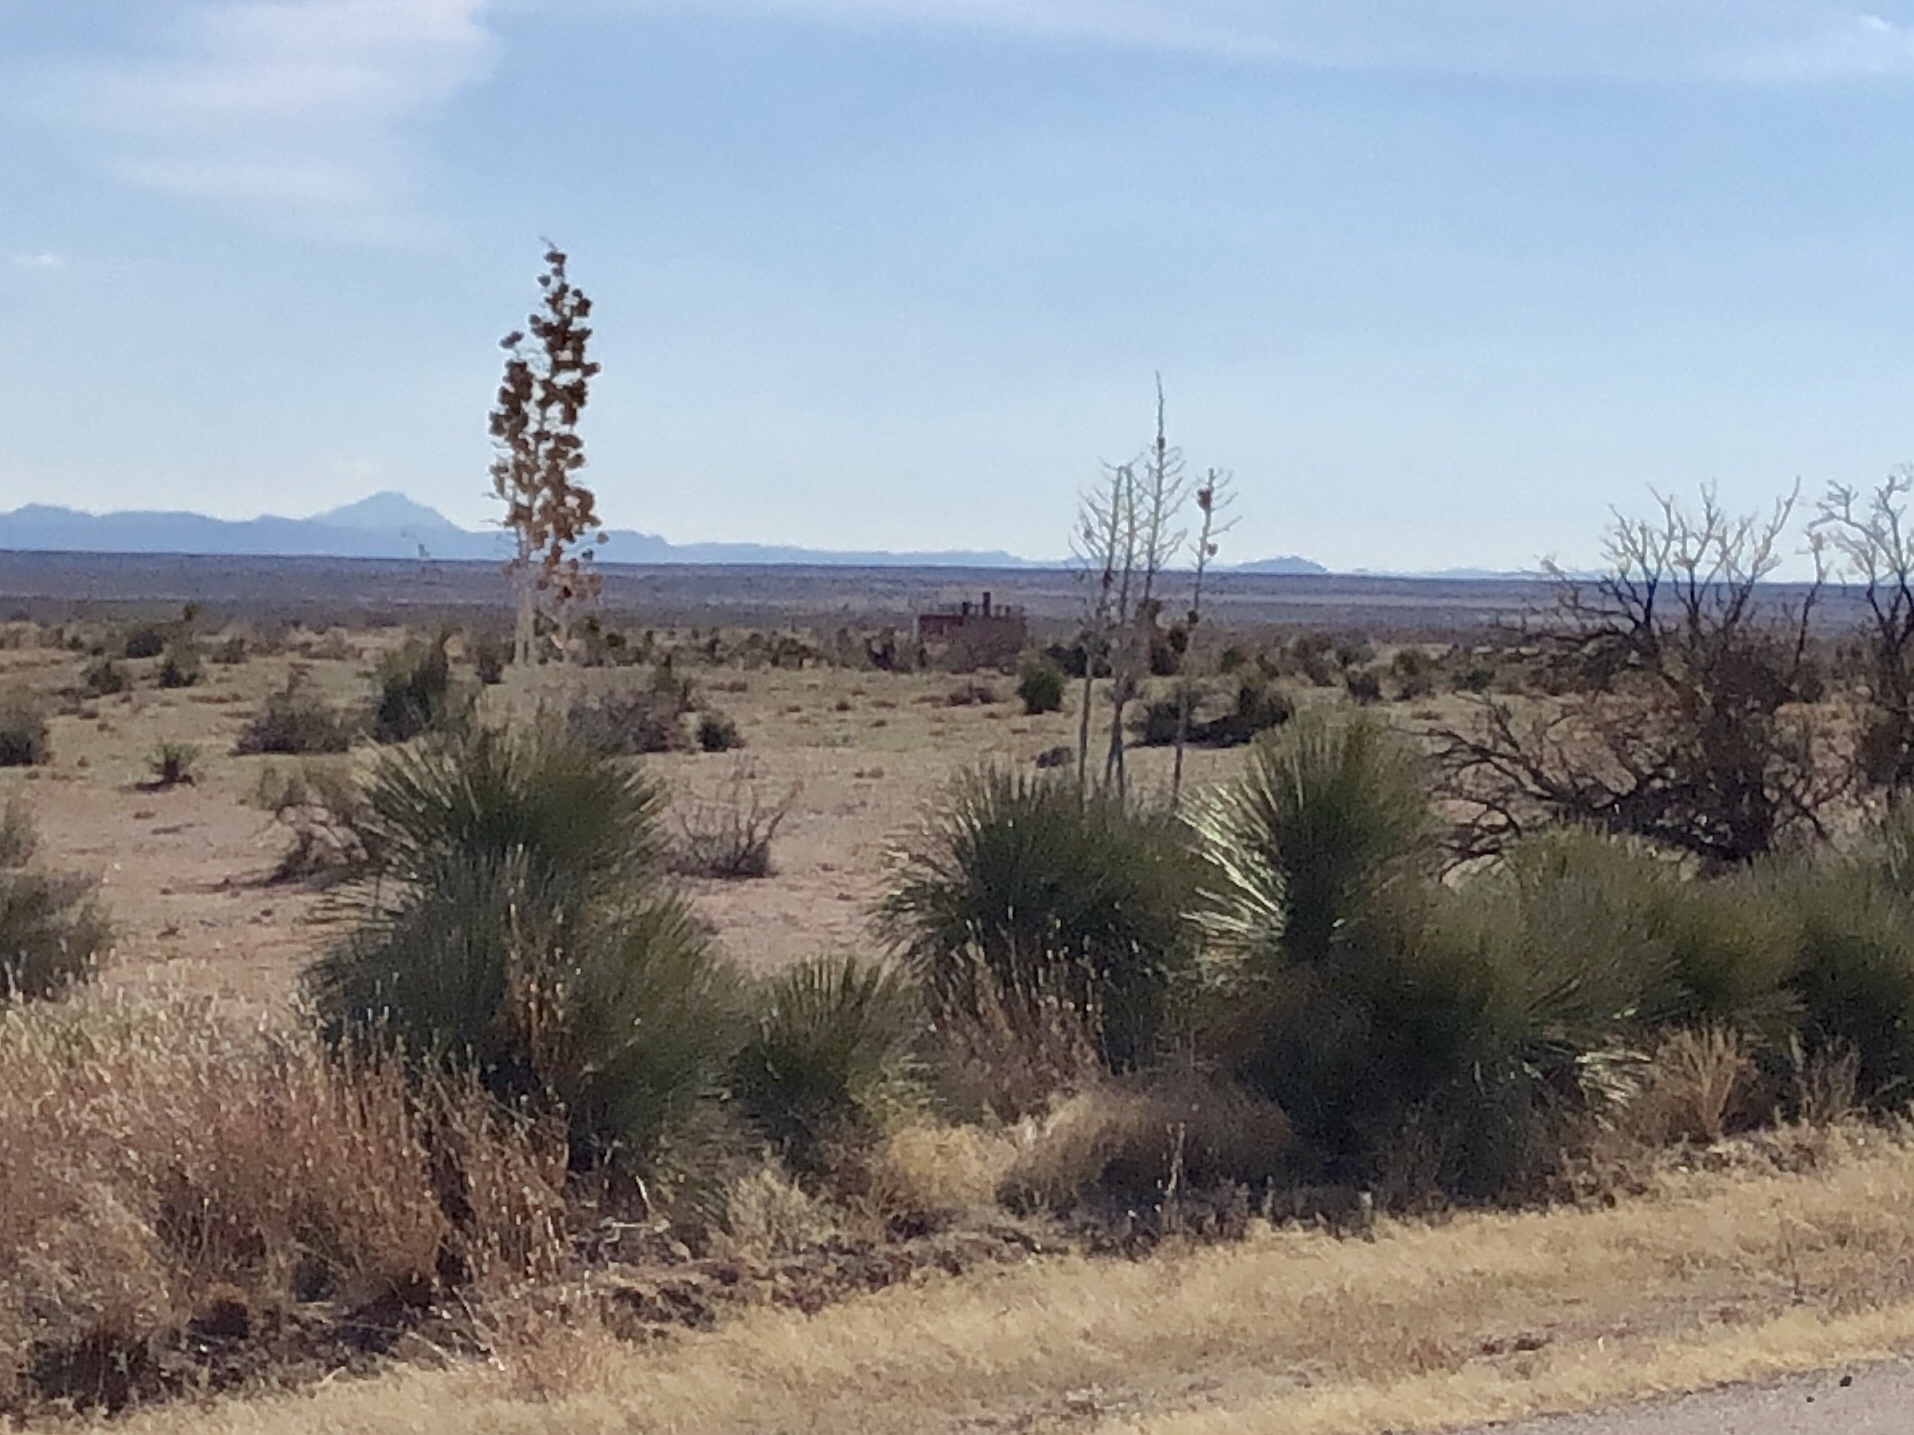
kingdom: Plantae
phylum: Tracheophyta
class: Liliopsida
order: Asparagales
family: Asparagaceae
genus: Yucca
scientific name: Yucca elata
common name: Palmella
